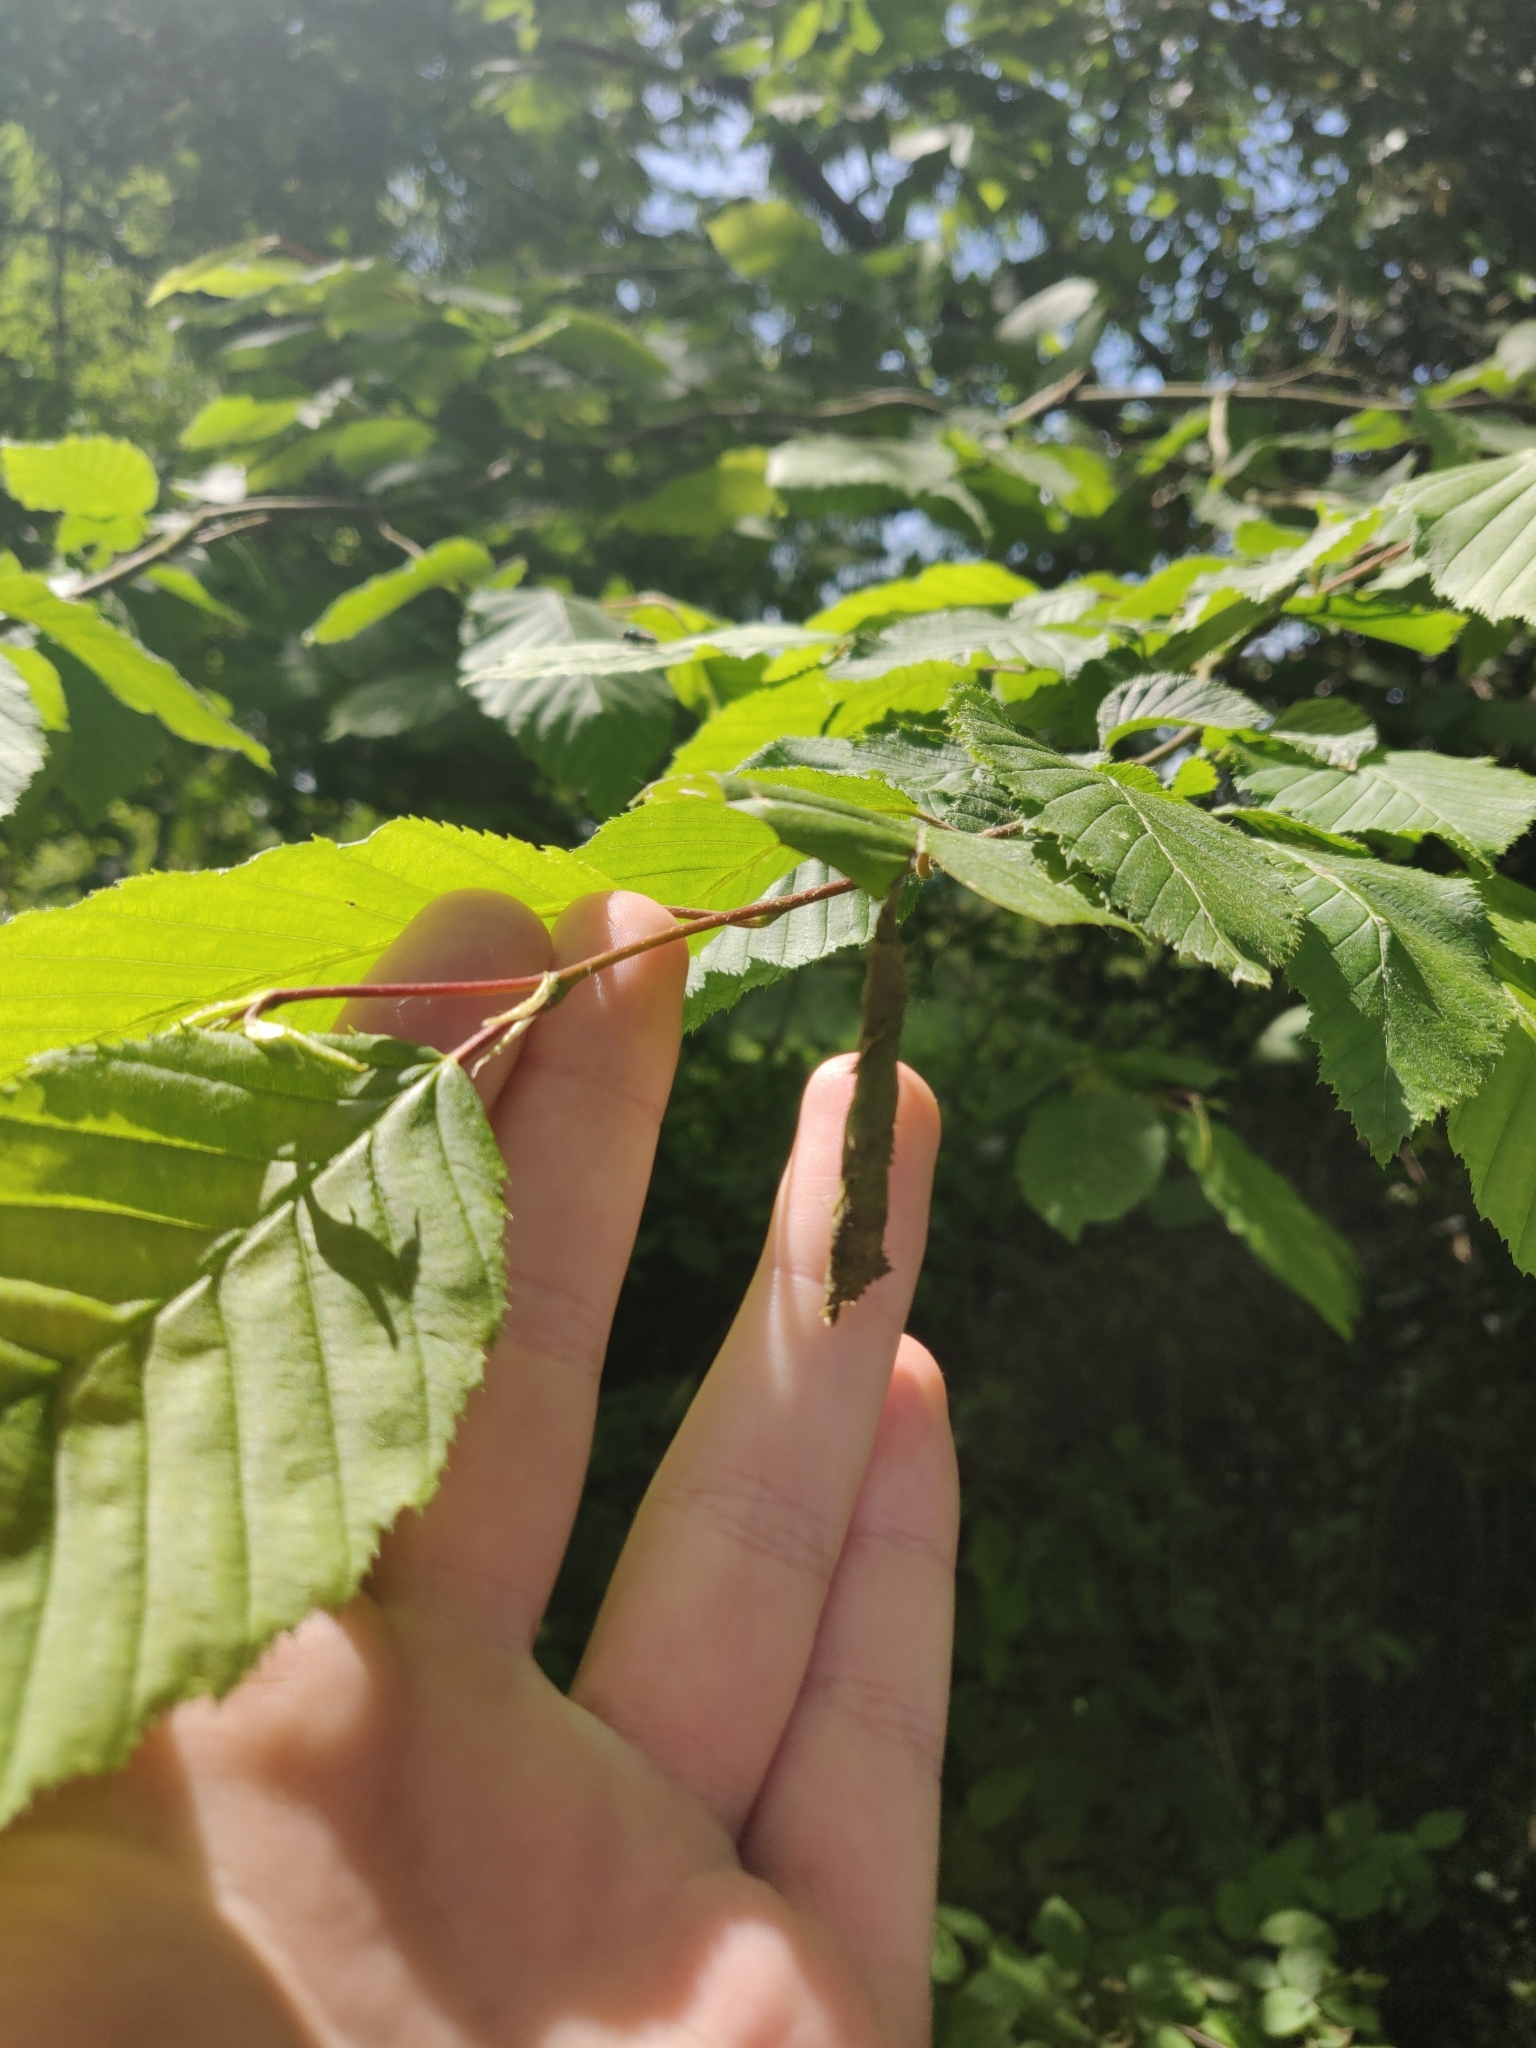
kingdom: Animalia
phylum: Arthropoda
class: Insecta
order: Coleoptera
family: Attelabidae
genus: Deporaus
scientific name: Deporaus betulae
